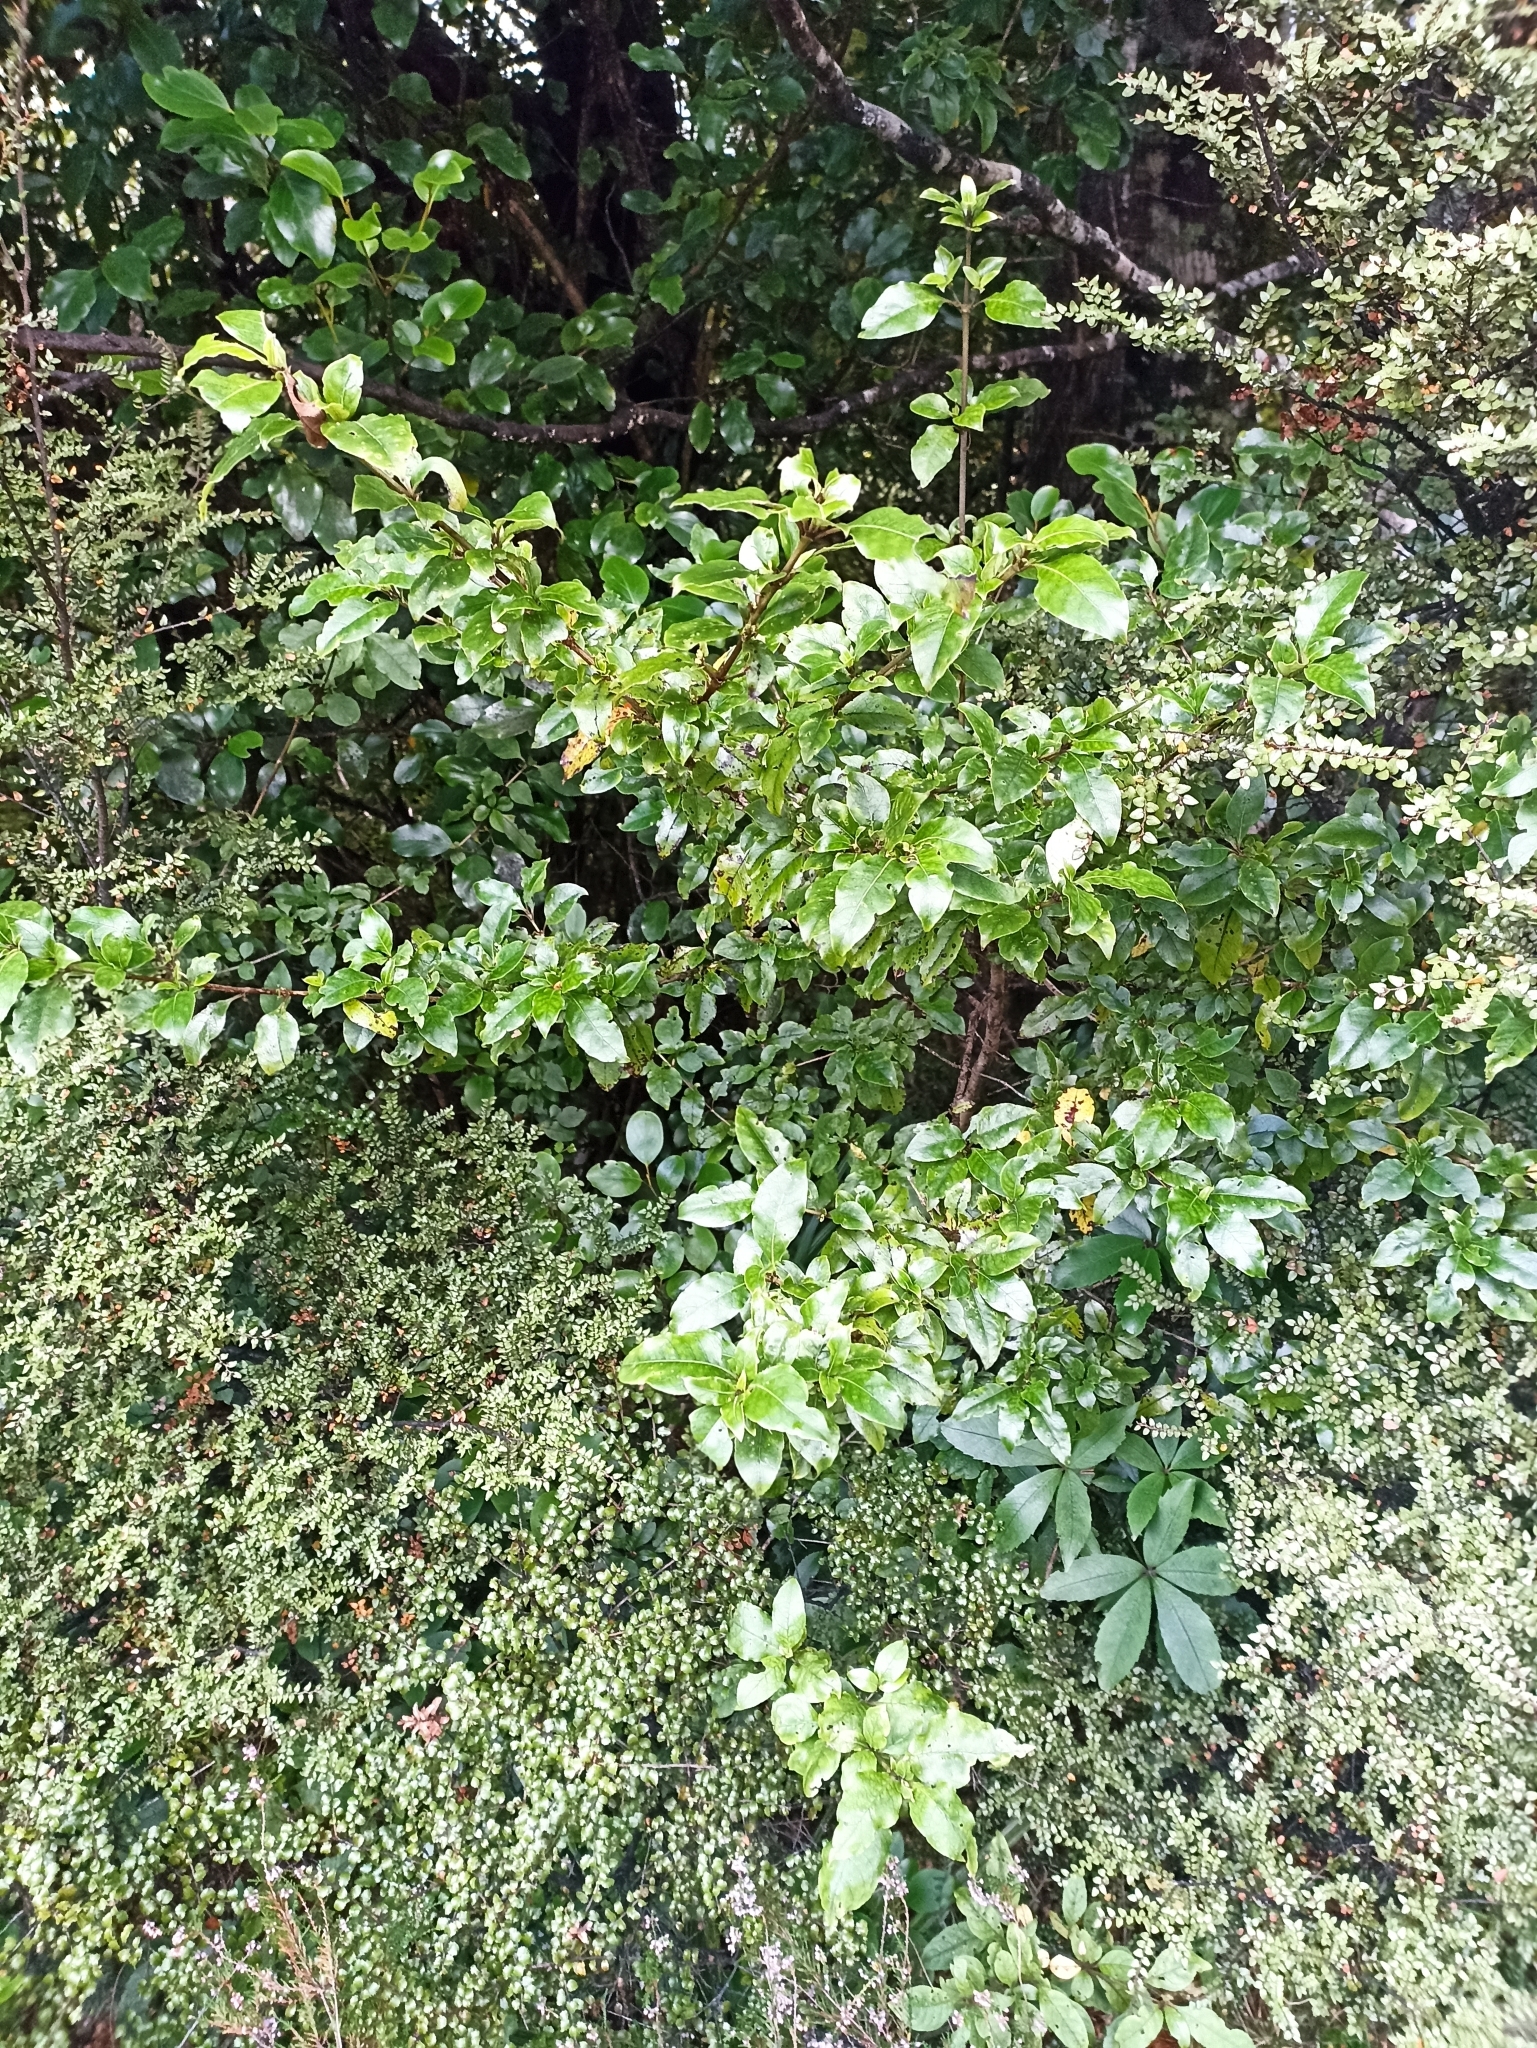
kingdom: Plantae
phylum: Tracheophyta
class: Magnoliopsida
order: Gentianales
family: Rubiaceae
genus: Coprosma
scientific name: Coprosma tenuifolia
